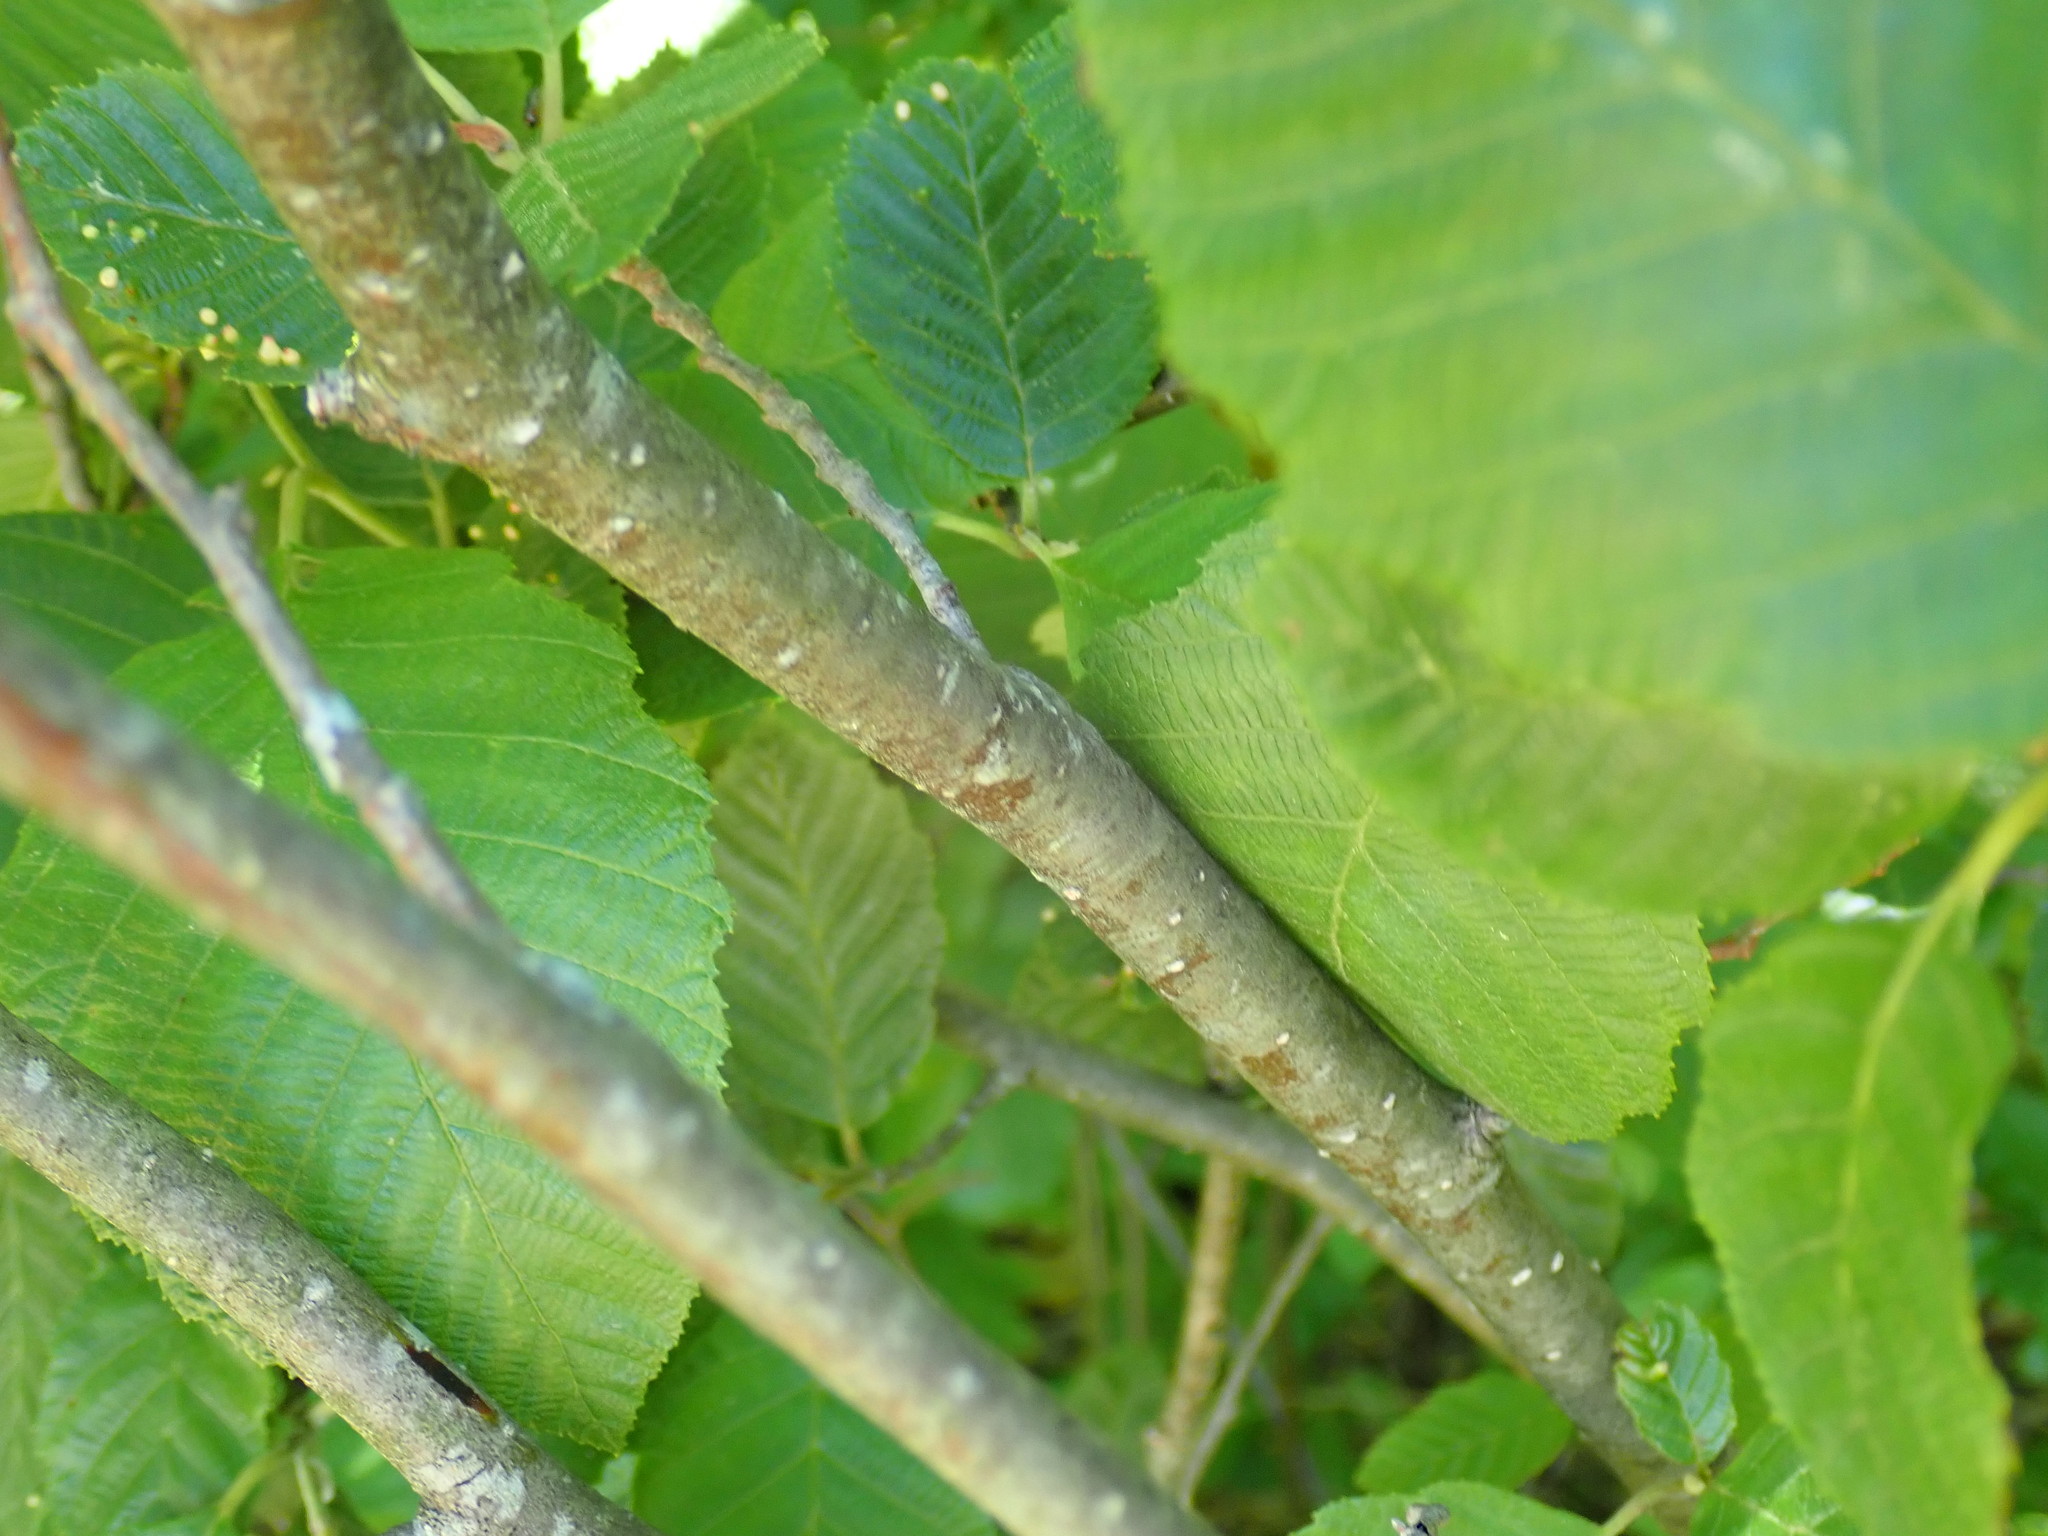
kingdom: Plantae
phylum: Tracheophyta
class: Magnoliopsida
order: Fagales
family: Betulaceae
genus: Alnus
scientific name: Alnus
